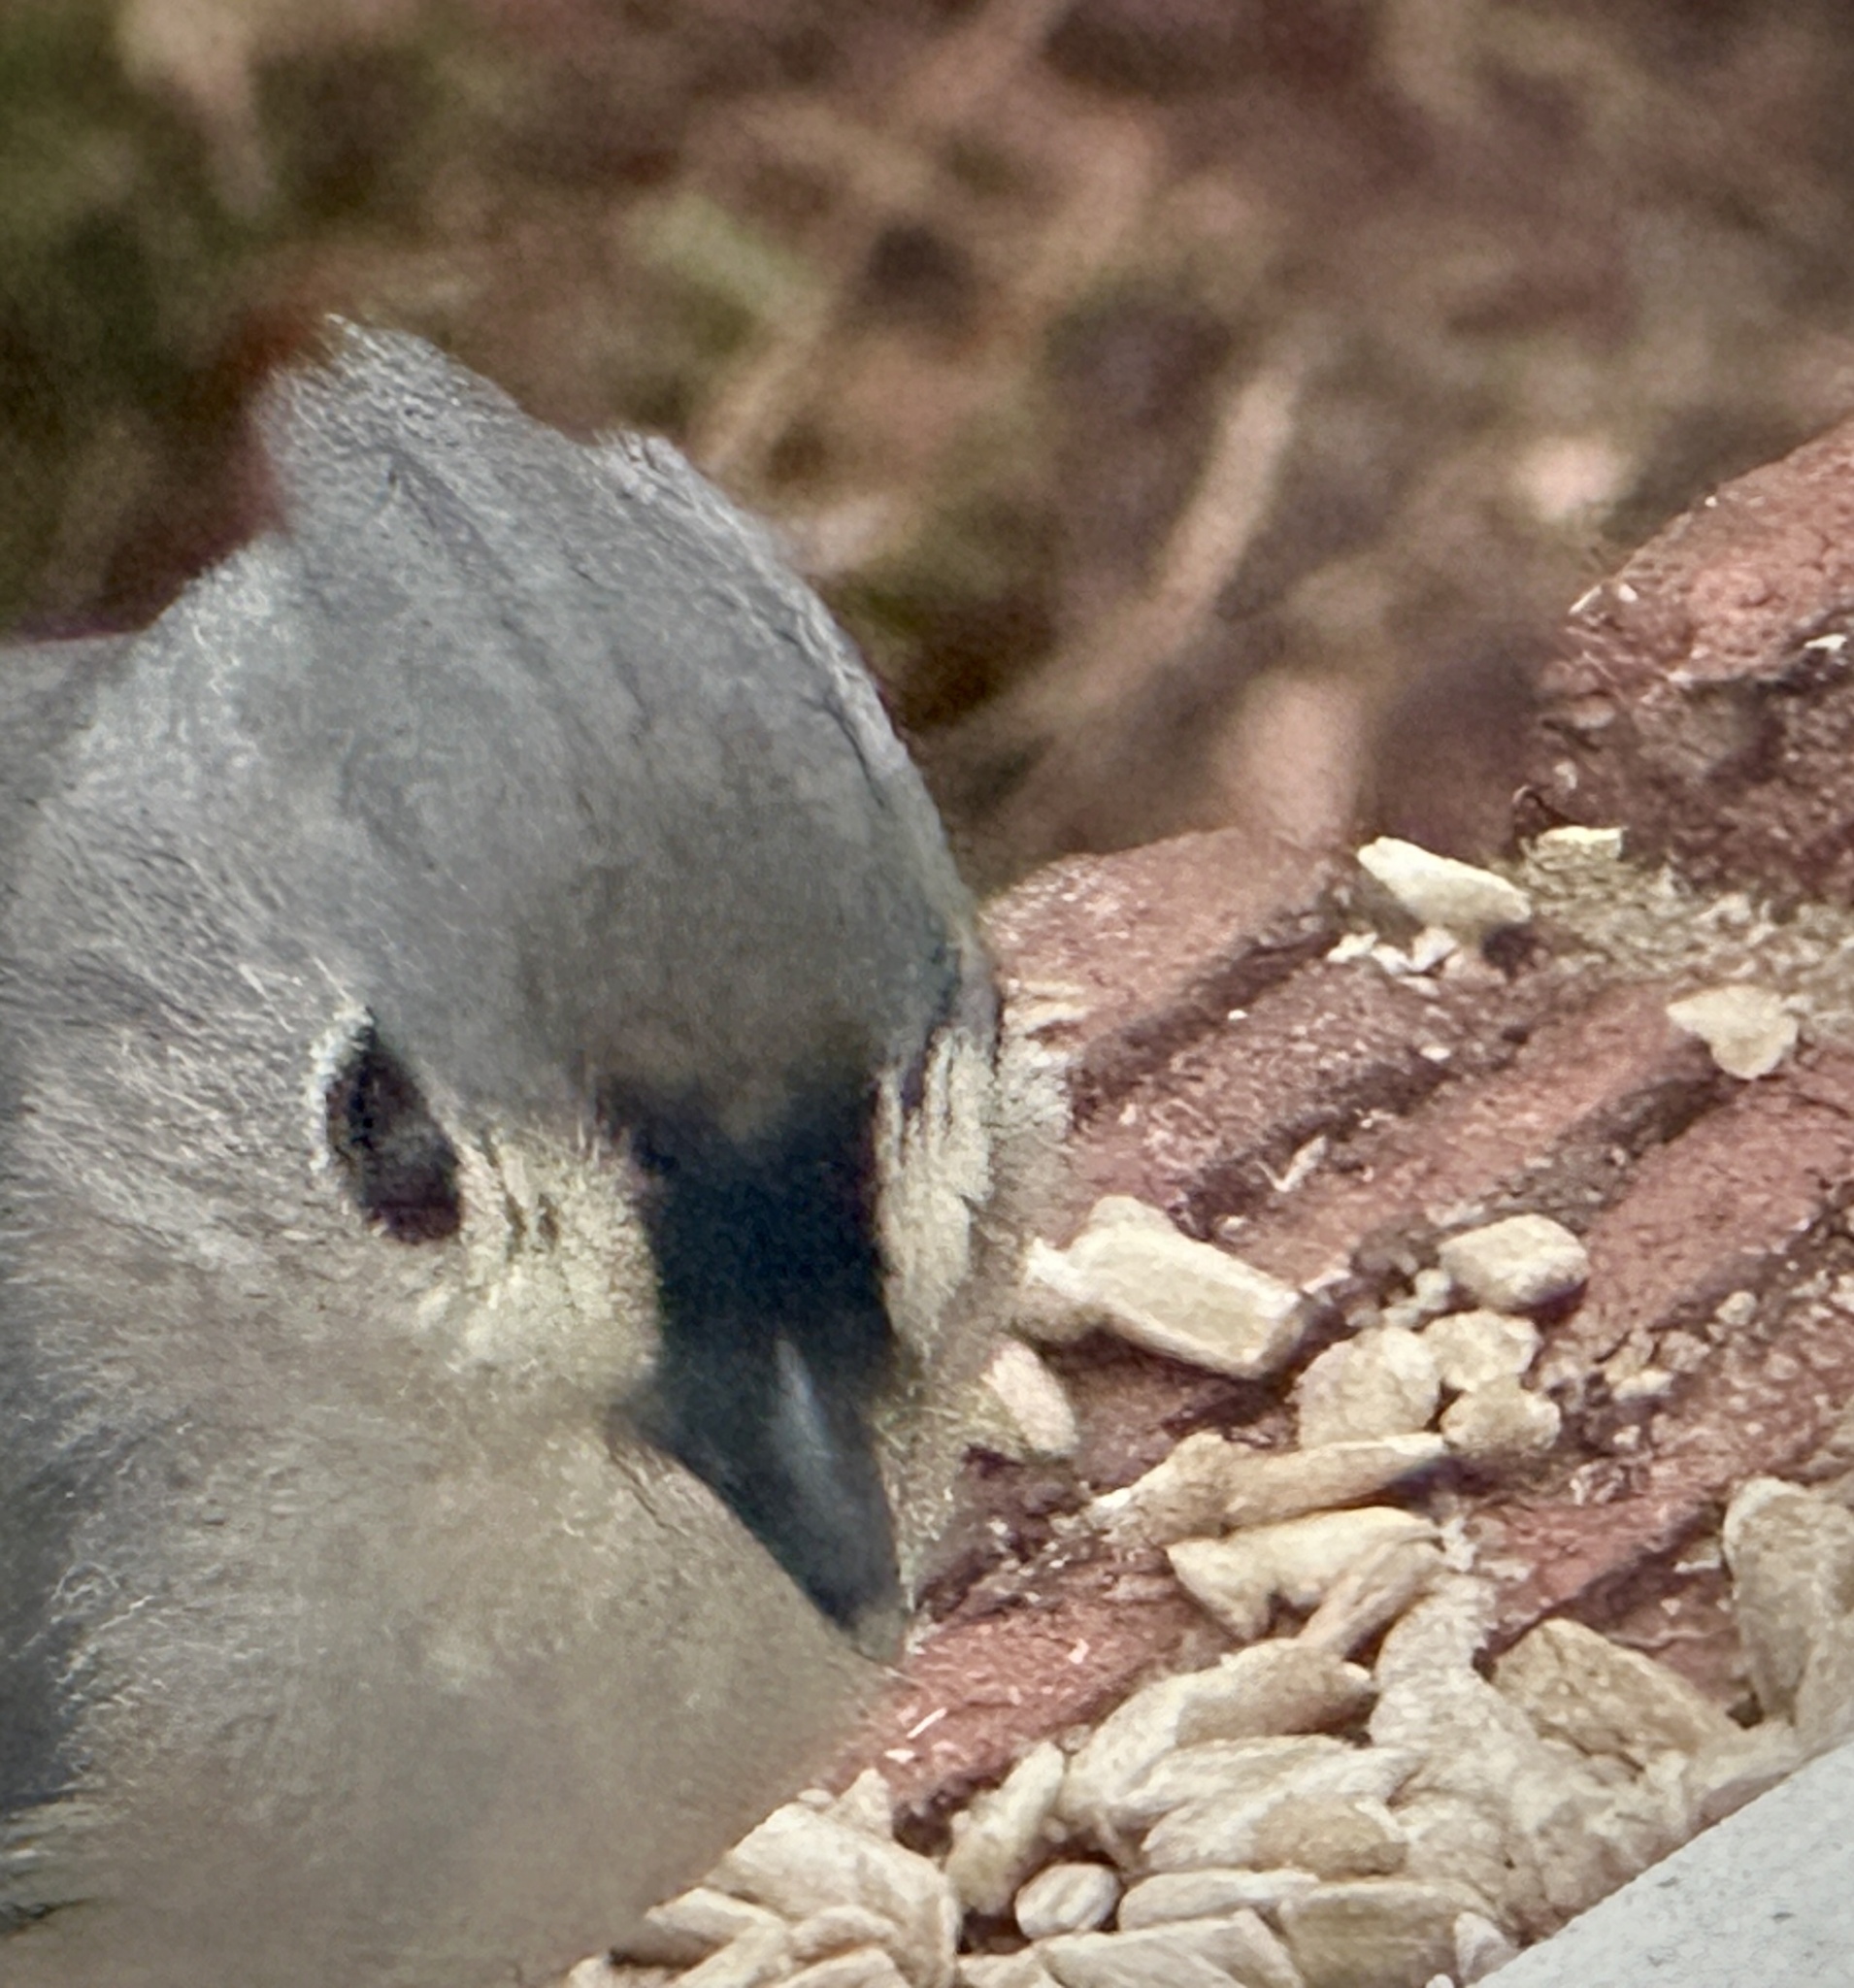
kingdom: Animalia
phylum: Chordata
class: Aves
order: Passeriformes
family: Paridae
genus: Baeolophus
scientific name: Baeolophus bicolor
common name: Tufted titmouse
